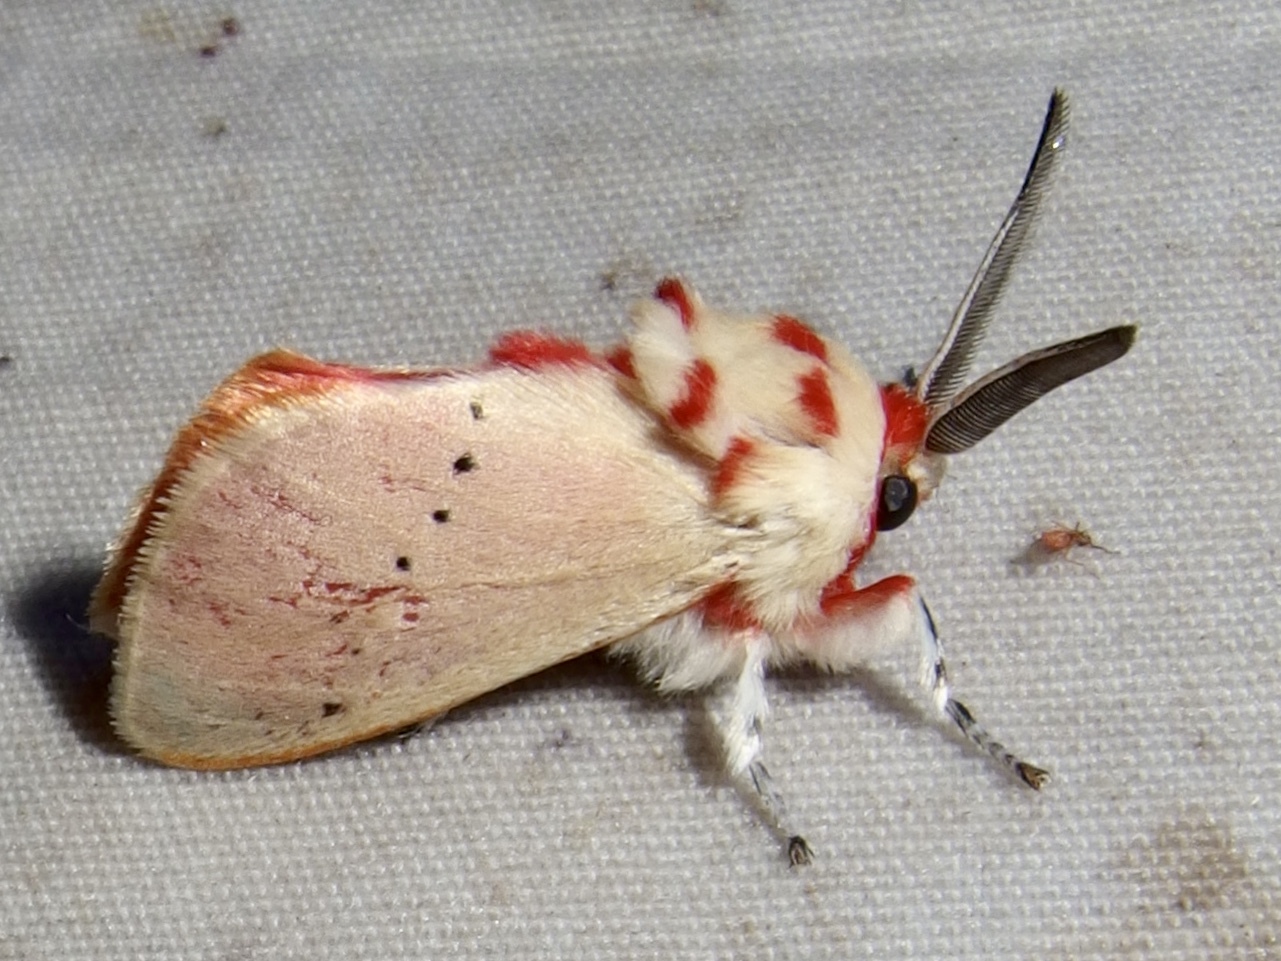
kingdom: Animalia
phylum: Arthropoda
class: Insecta
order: Lepidoptera
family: Megalopygidae
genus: Trosia
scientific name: Trosia obsolescens
